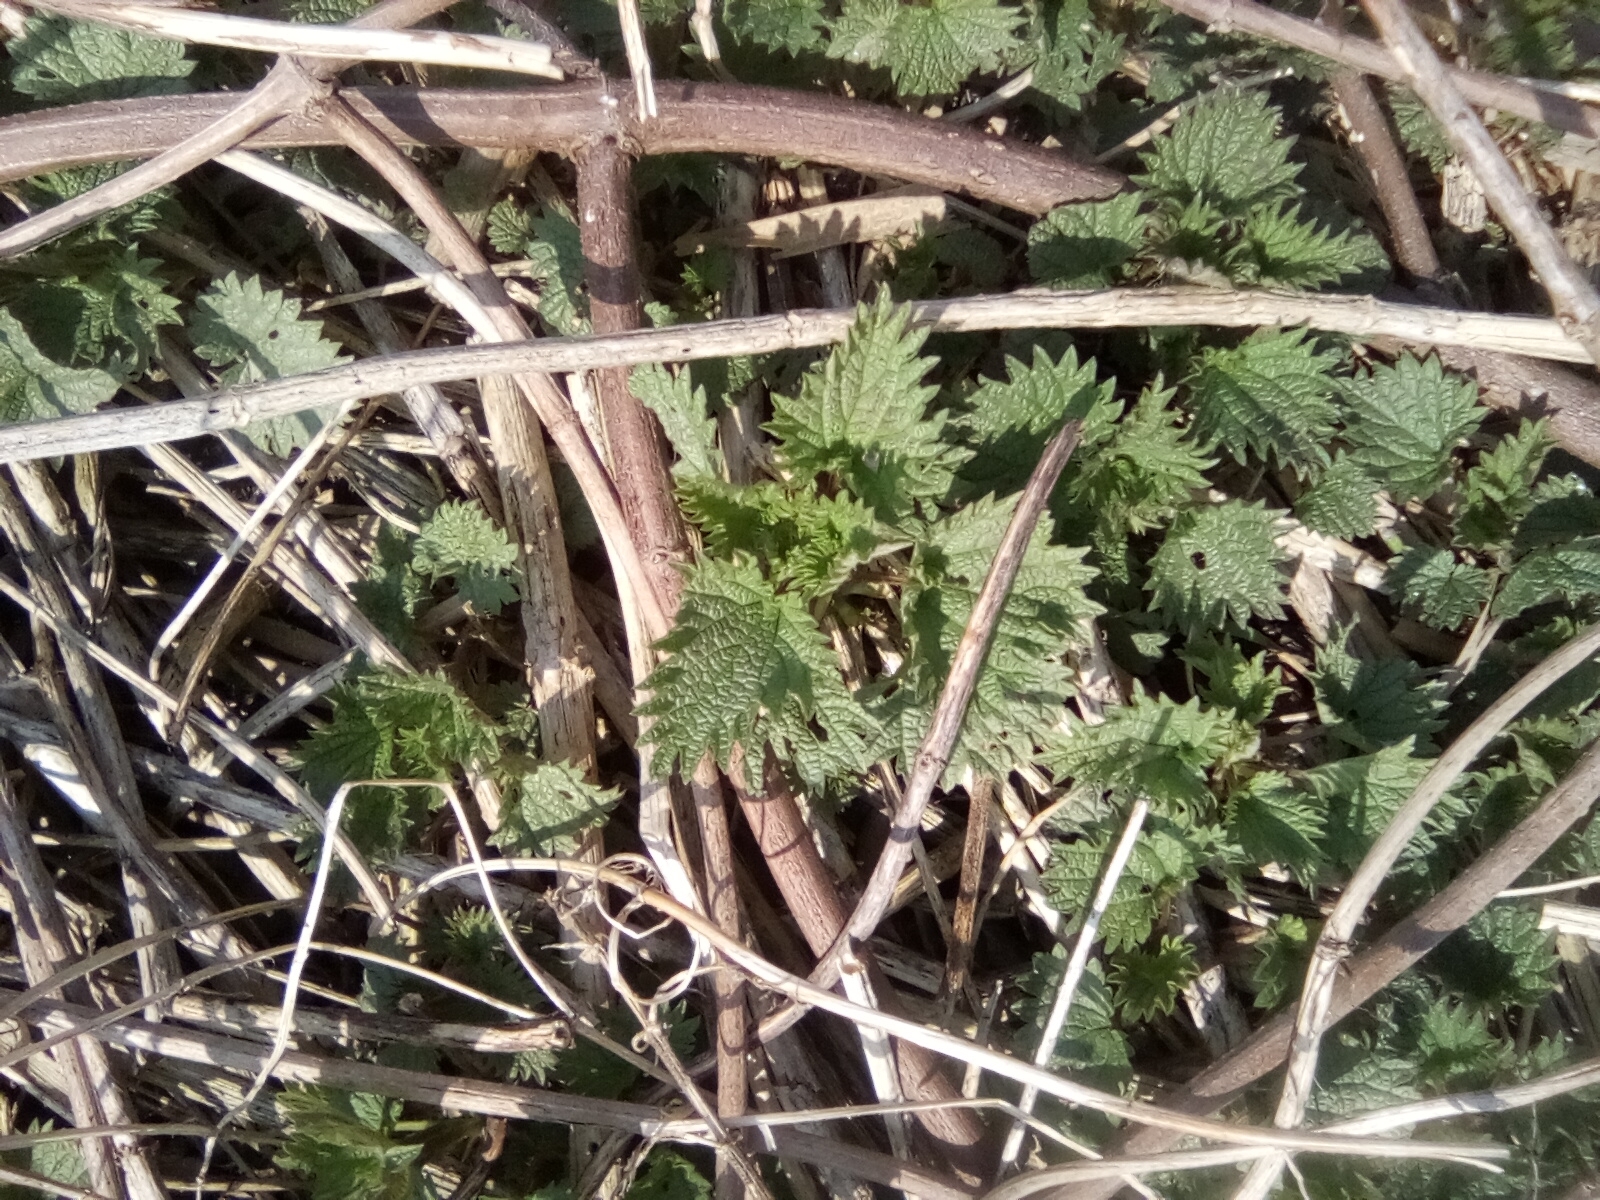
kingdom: Plantae
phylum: Tracheophyta
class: Magnoliopsida
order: Rosales
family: Urticaceae
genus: Urtica
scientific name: Urtica dioica
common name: Common nettle
